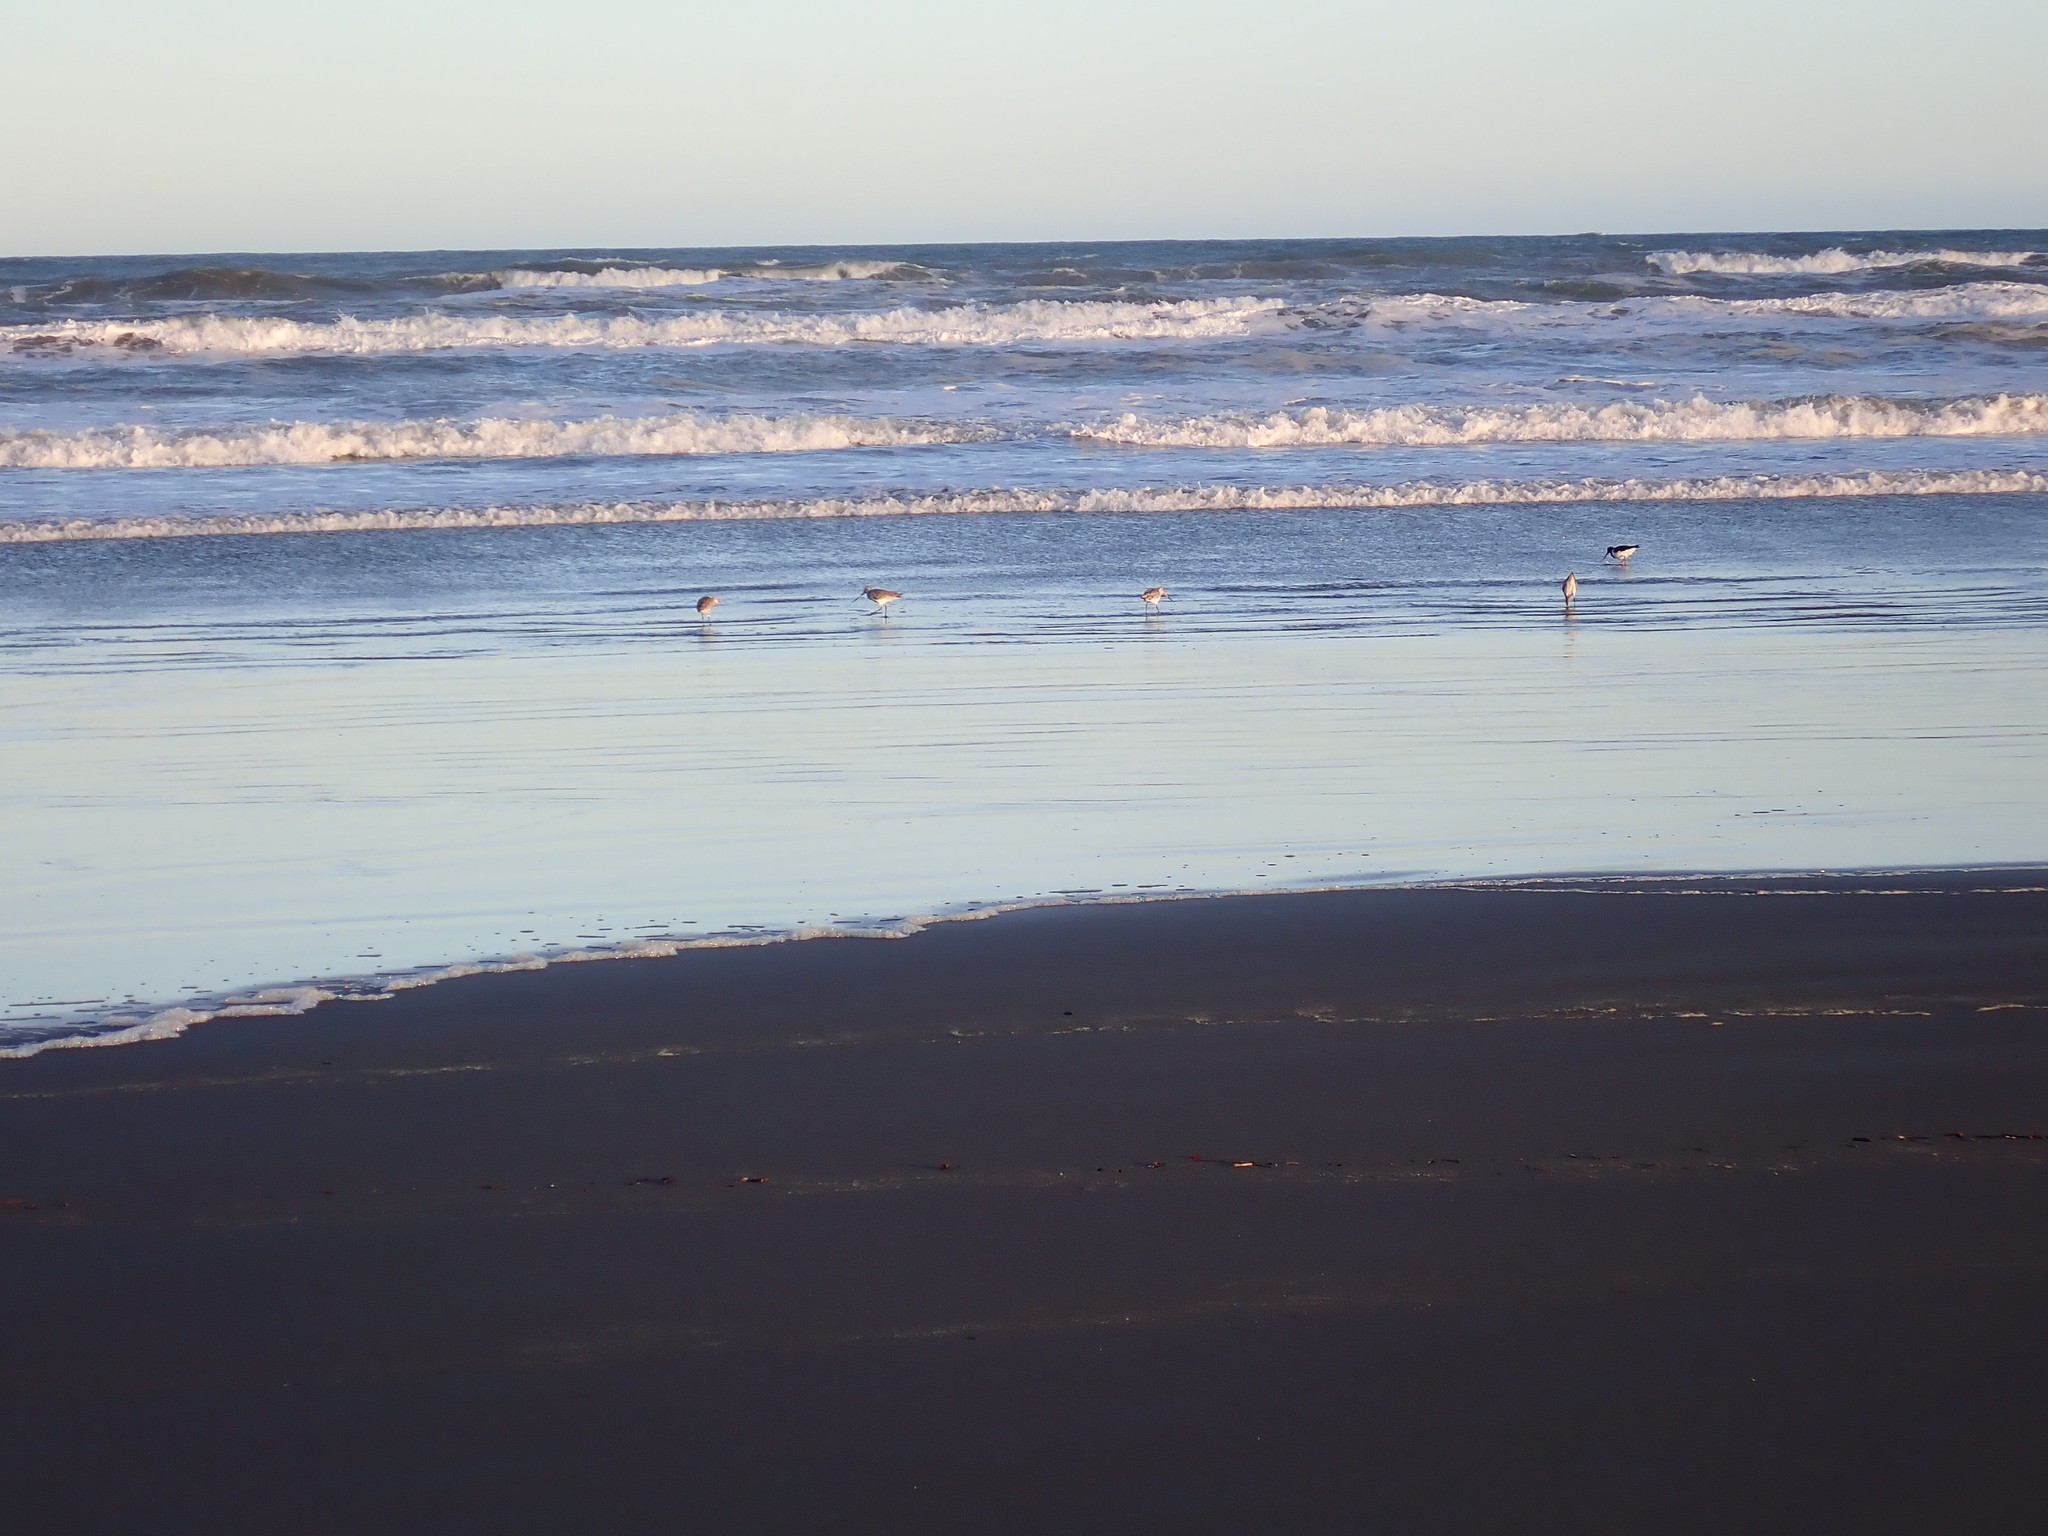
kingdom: Animalia
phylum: Chordata
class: Aves
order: Charadriiformes
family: Scolopacidae
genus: Limosa
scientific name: Limosa lapponica
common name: Bar-tailed godwit
